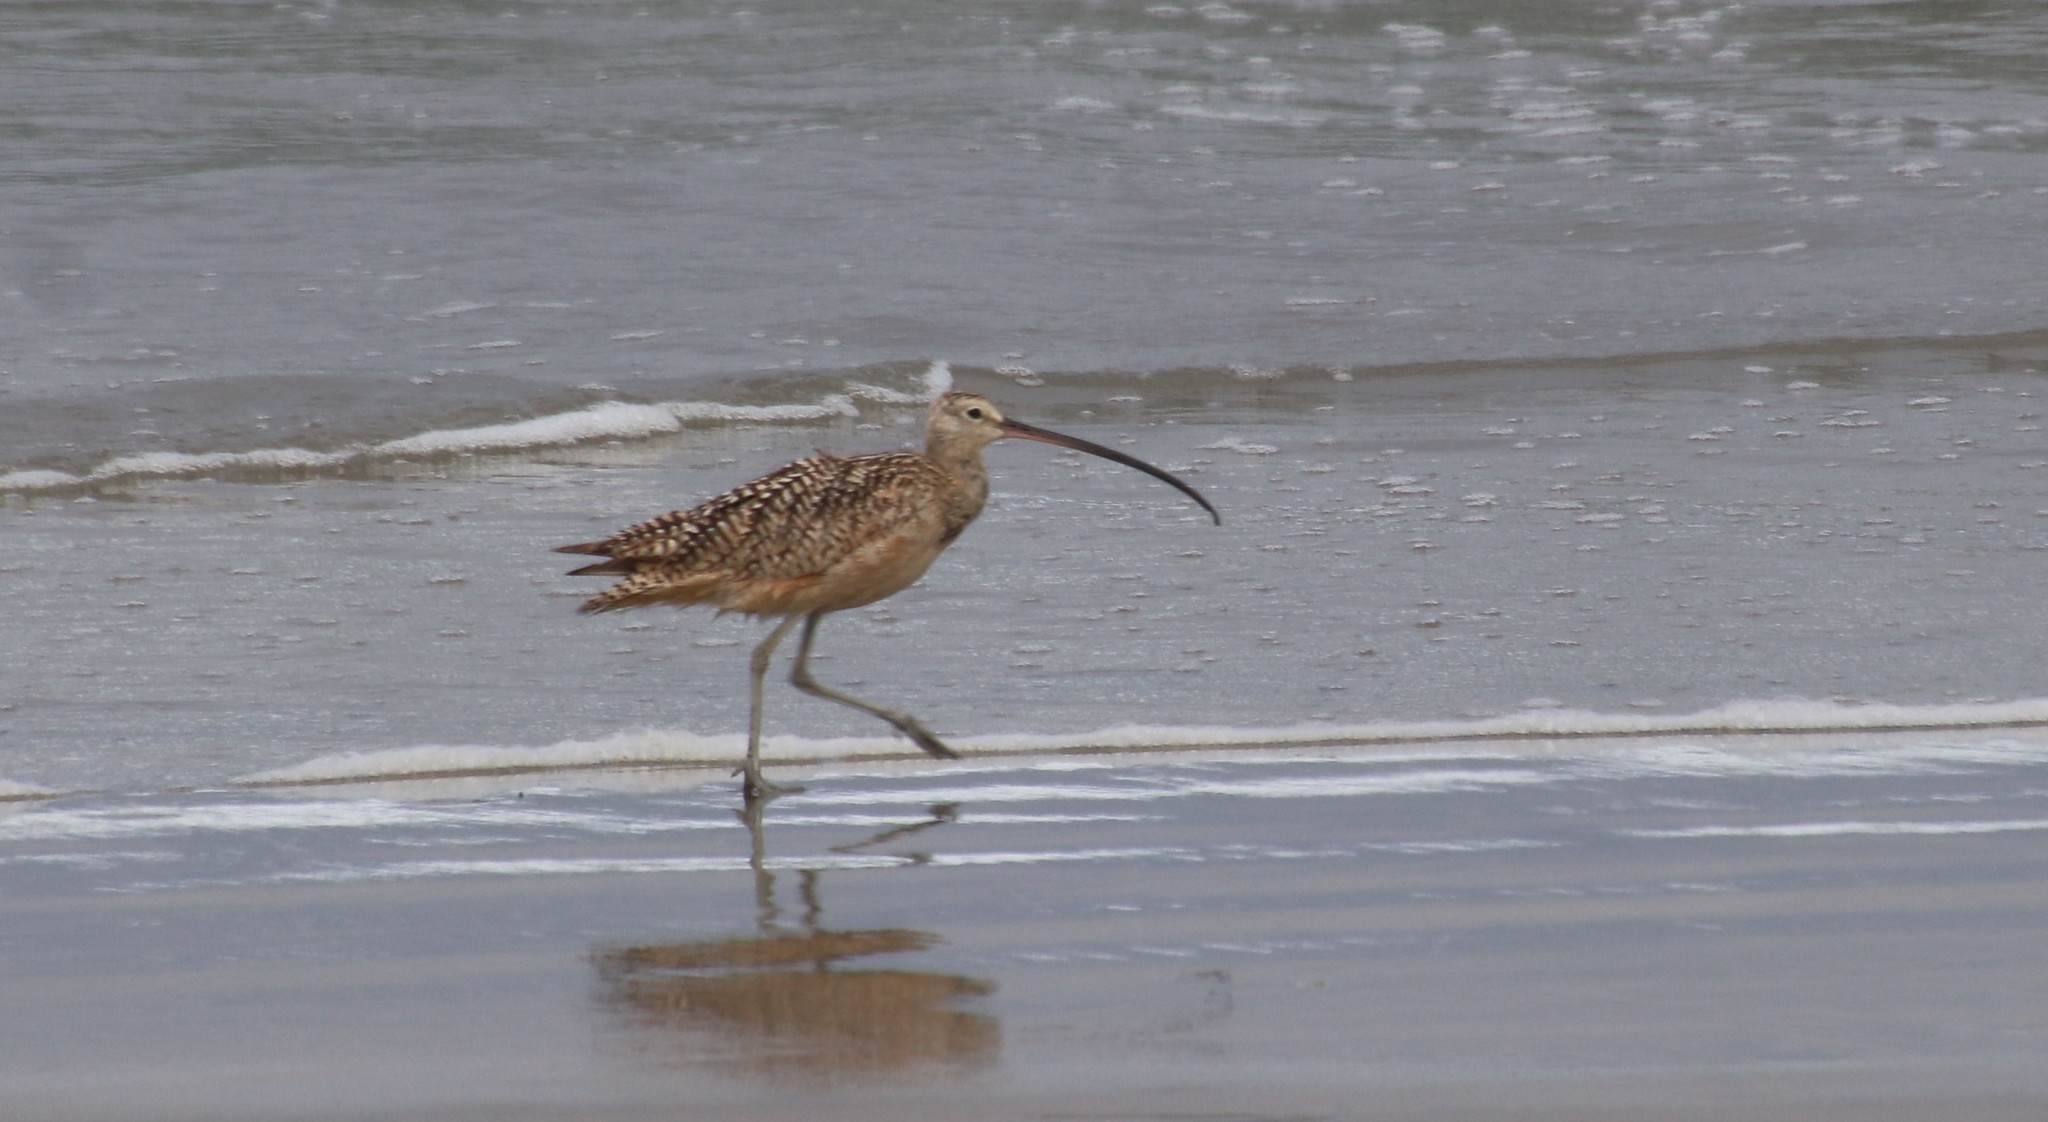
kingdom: Animalia
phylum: Chordata
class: Aves
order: Charadriiformes
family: Scolopacidae
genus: Numenius
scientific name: Numenius americanus
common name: Long-billed curlew
